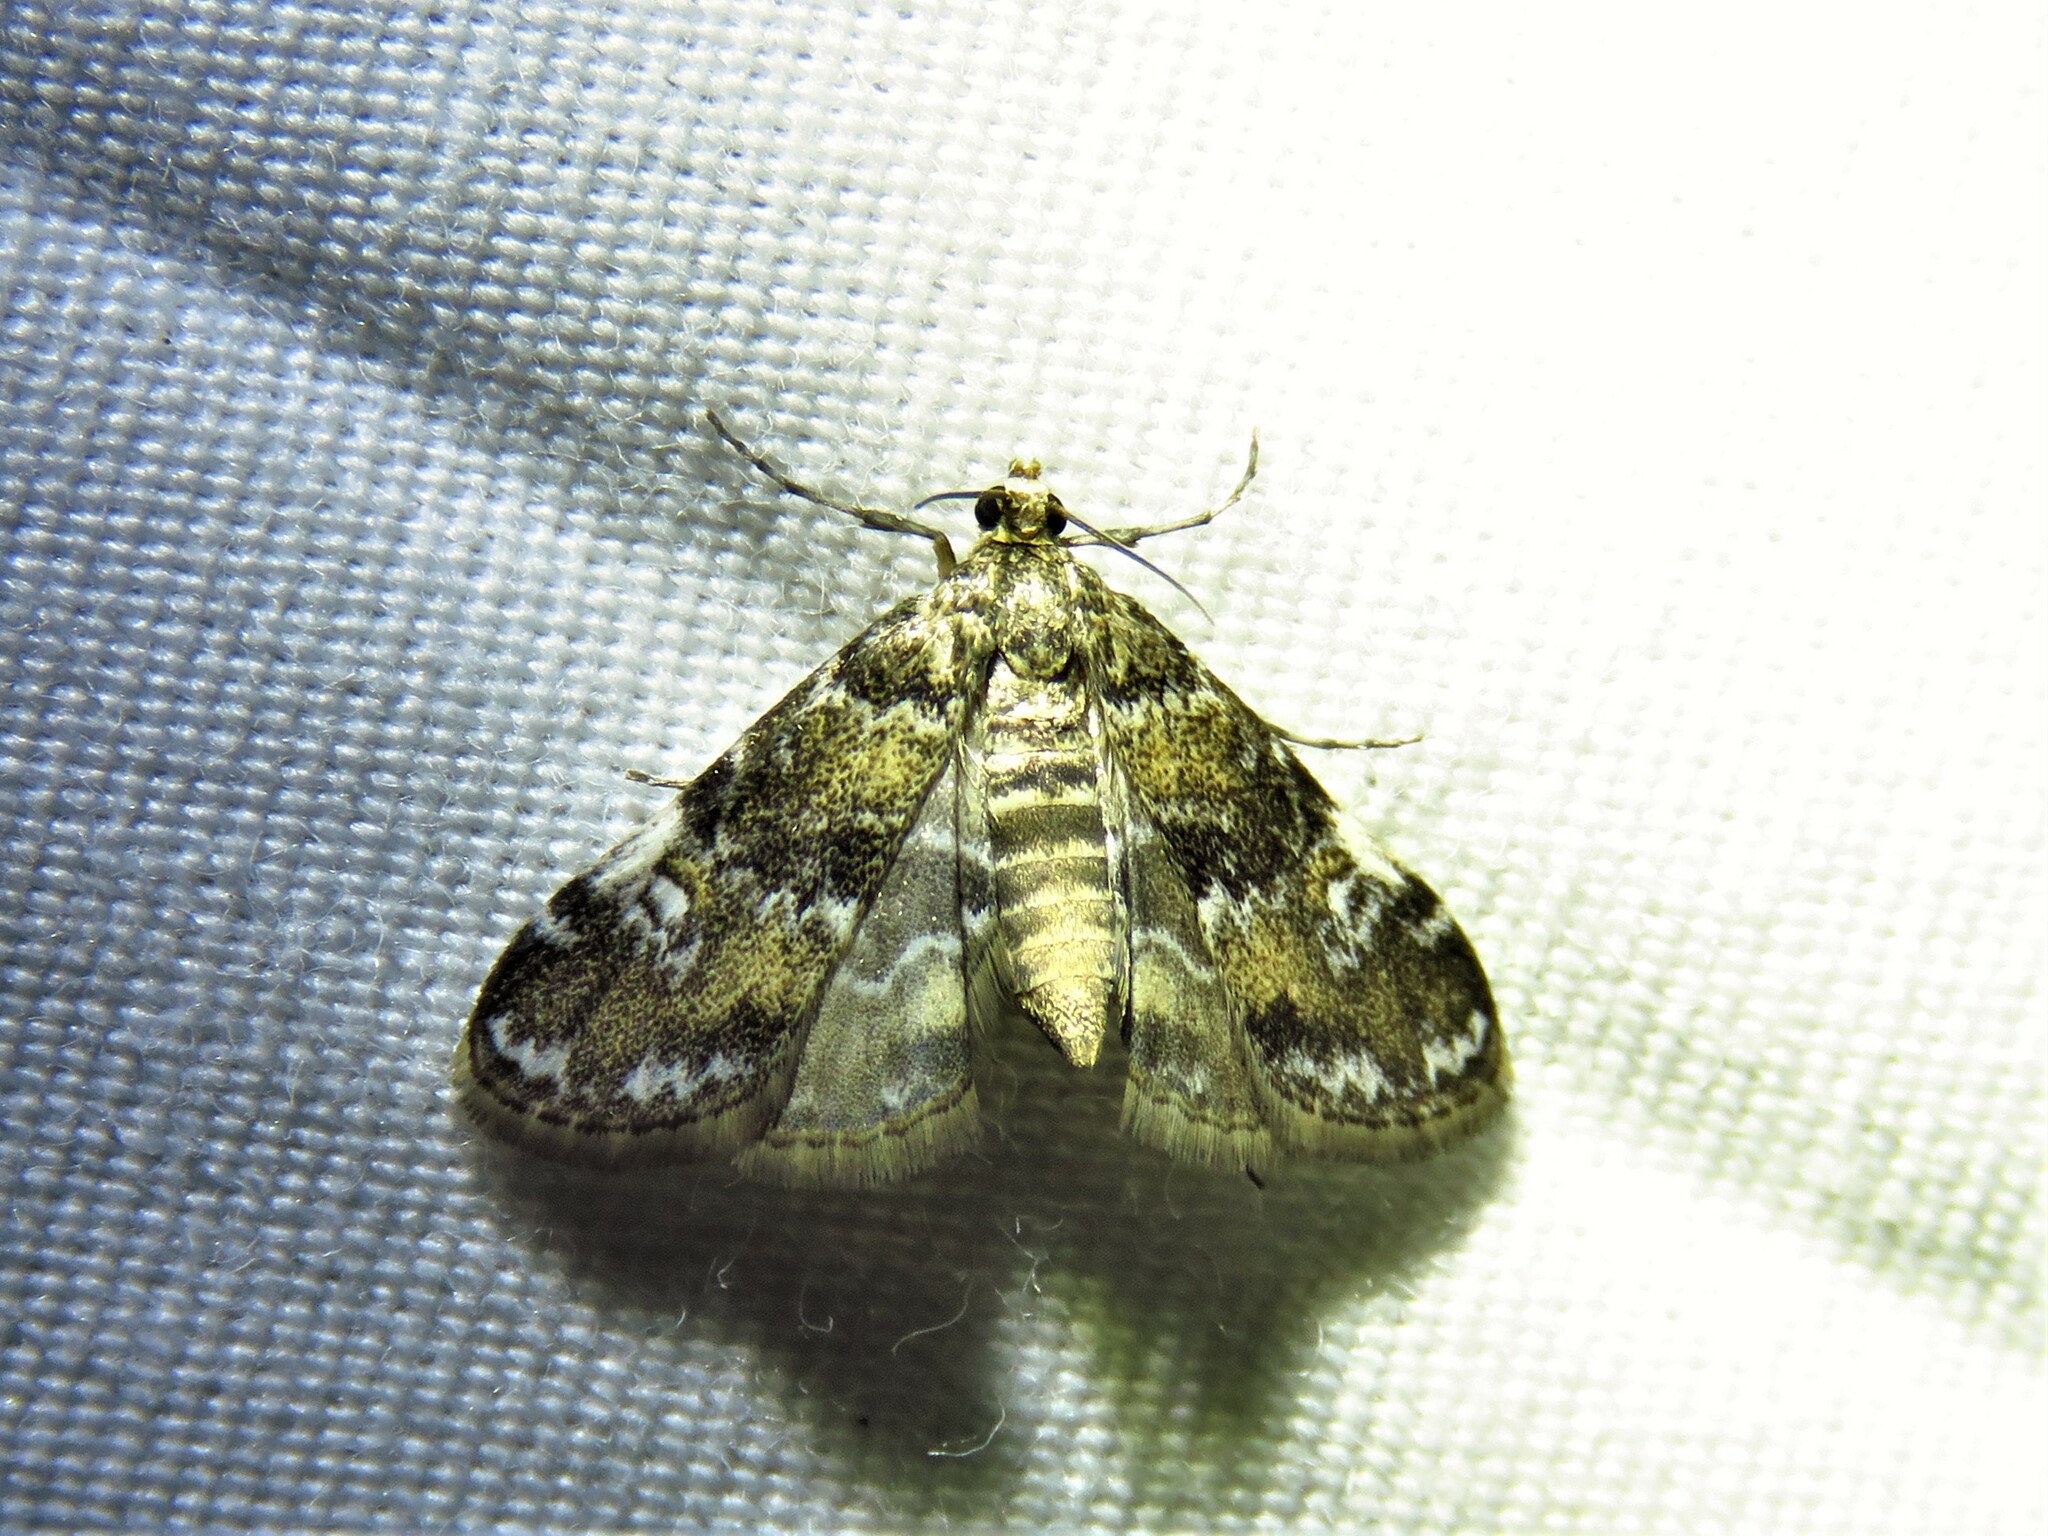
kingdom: Animalia
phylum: Arthropoda
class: Insecta
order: Lepidoptera
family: Crambidae
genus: Elophila
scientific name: Elophila obliteralis
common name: Waterlily leafcutter moth
